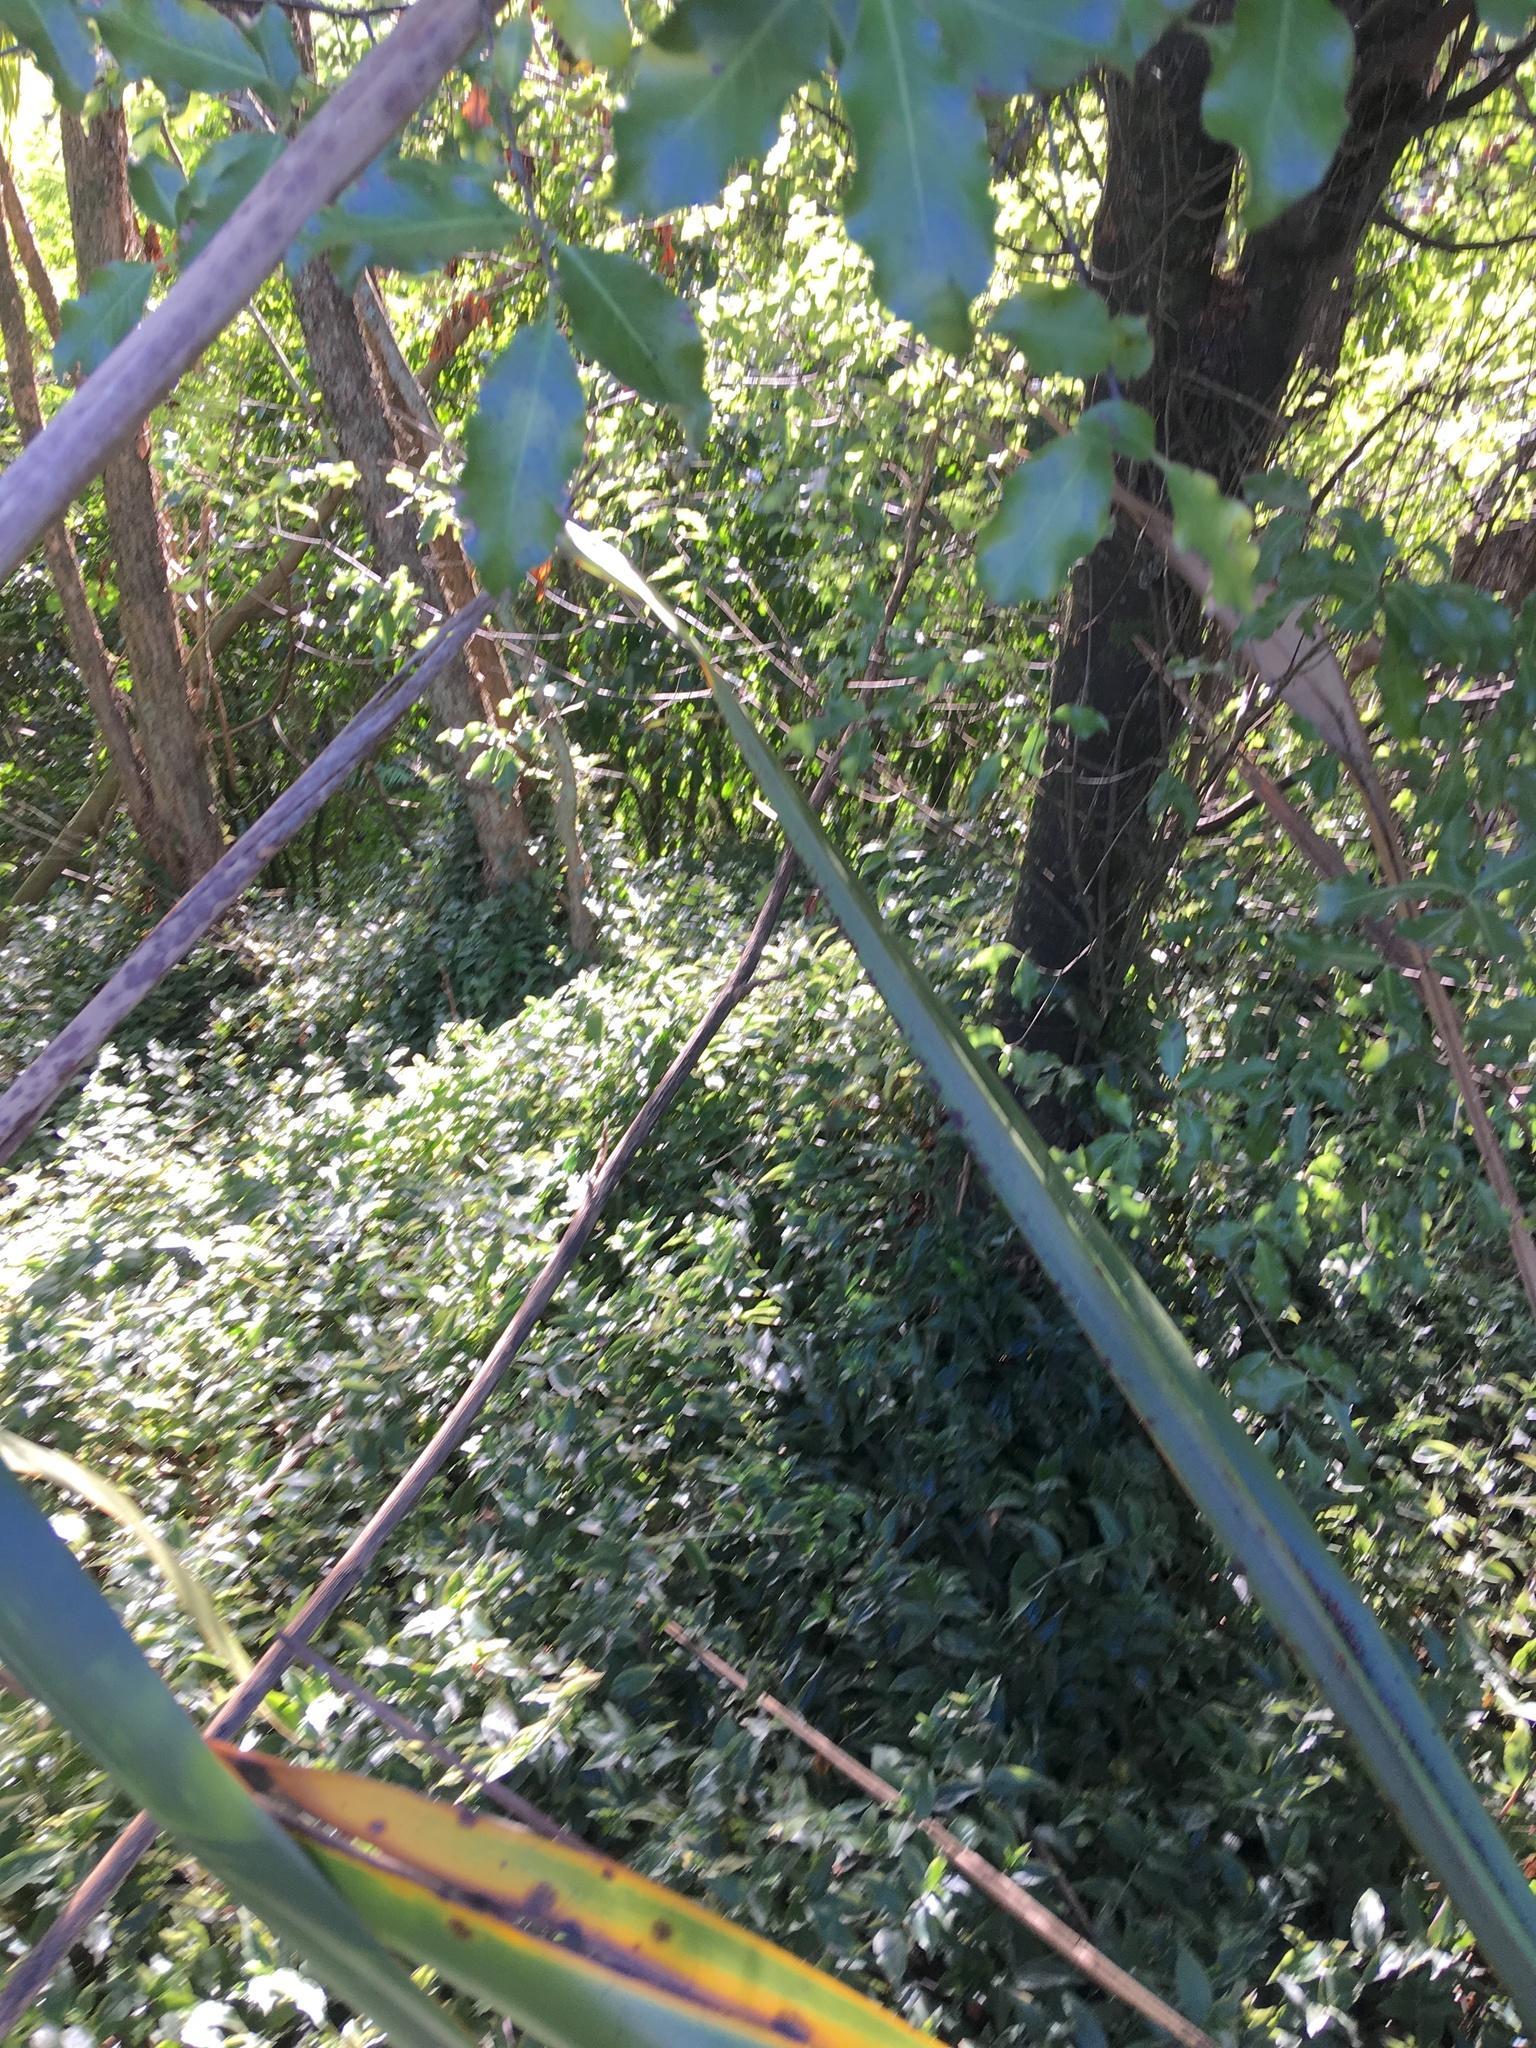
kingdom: Plantae
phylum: Tracheophyta
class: Liliopsida
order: Commelinales
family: Commelinaceae
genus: Tradescantia
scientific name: Tradescantia fluminensis
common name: Wandering-jew
